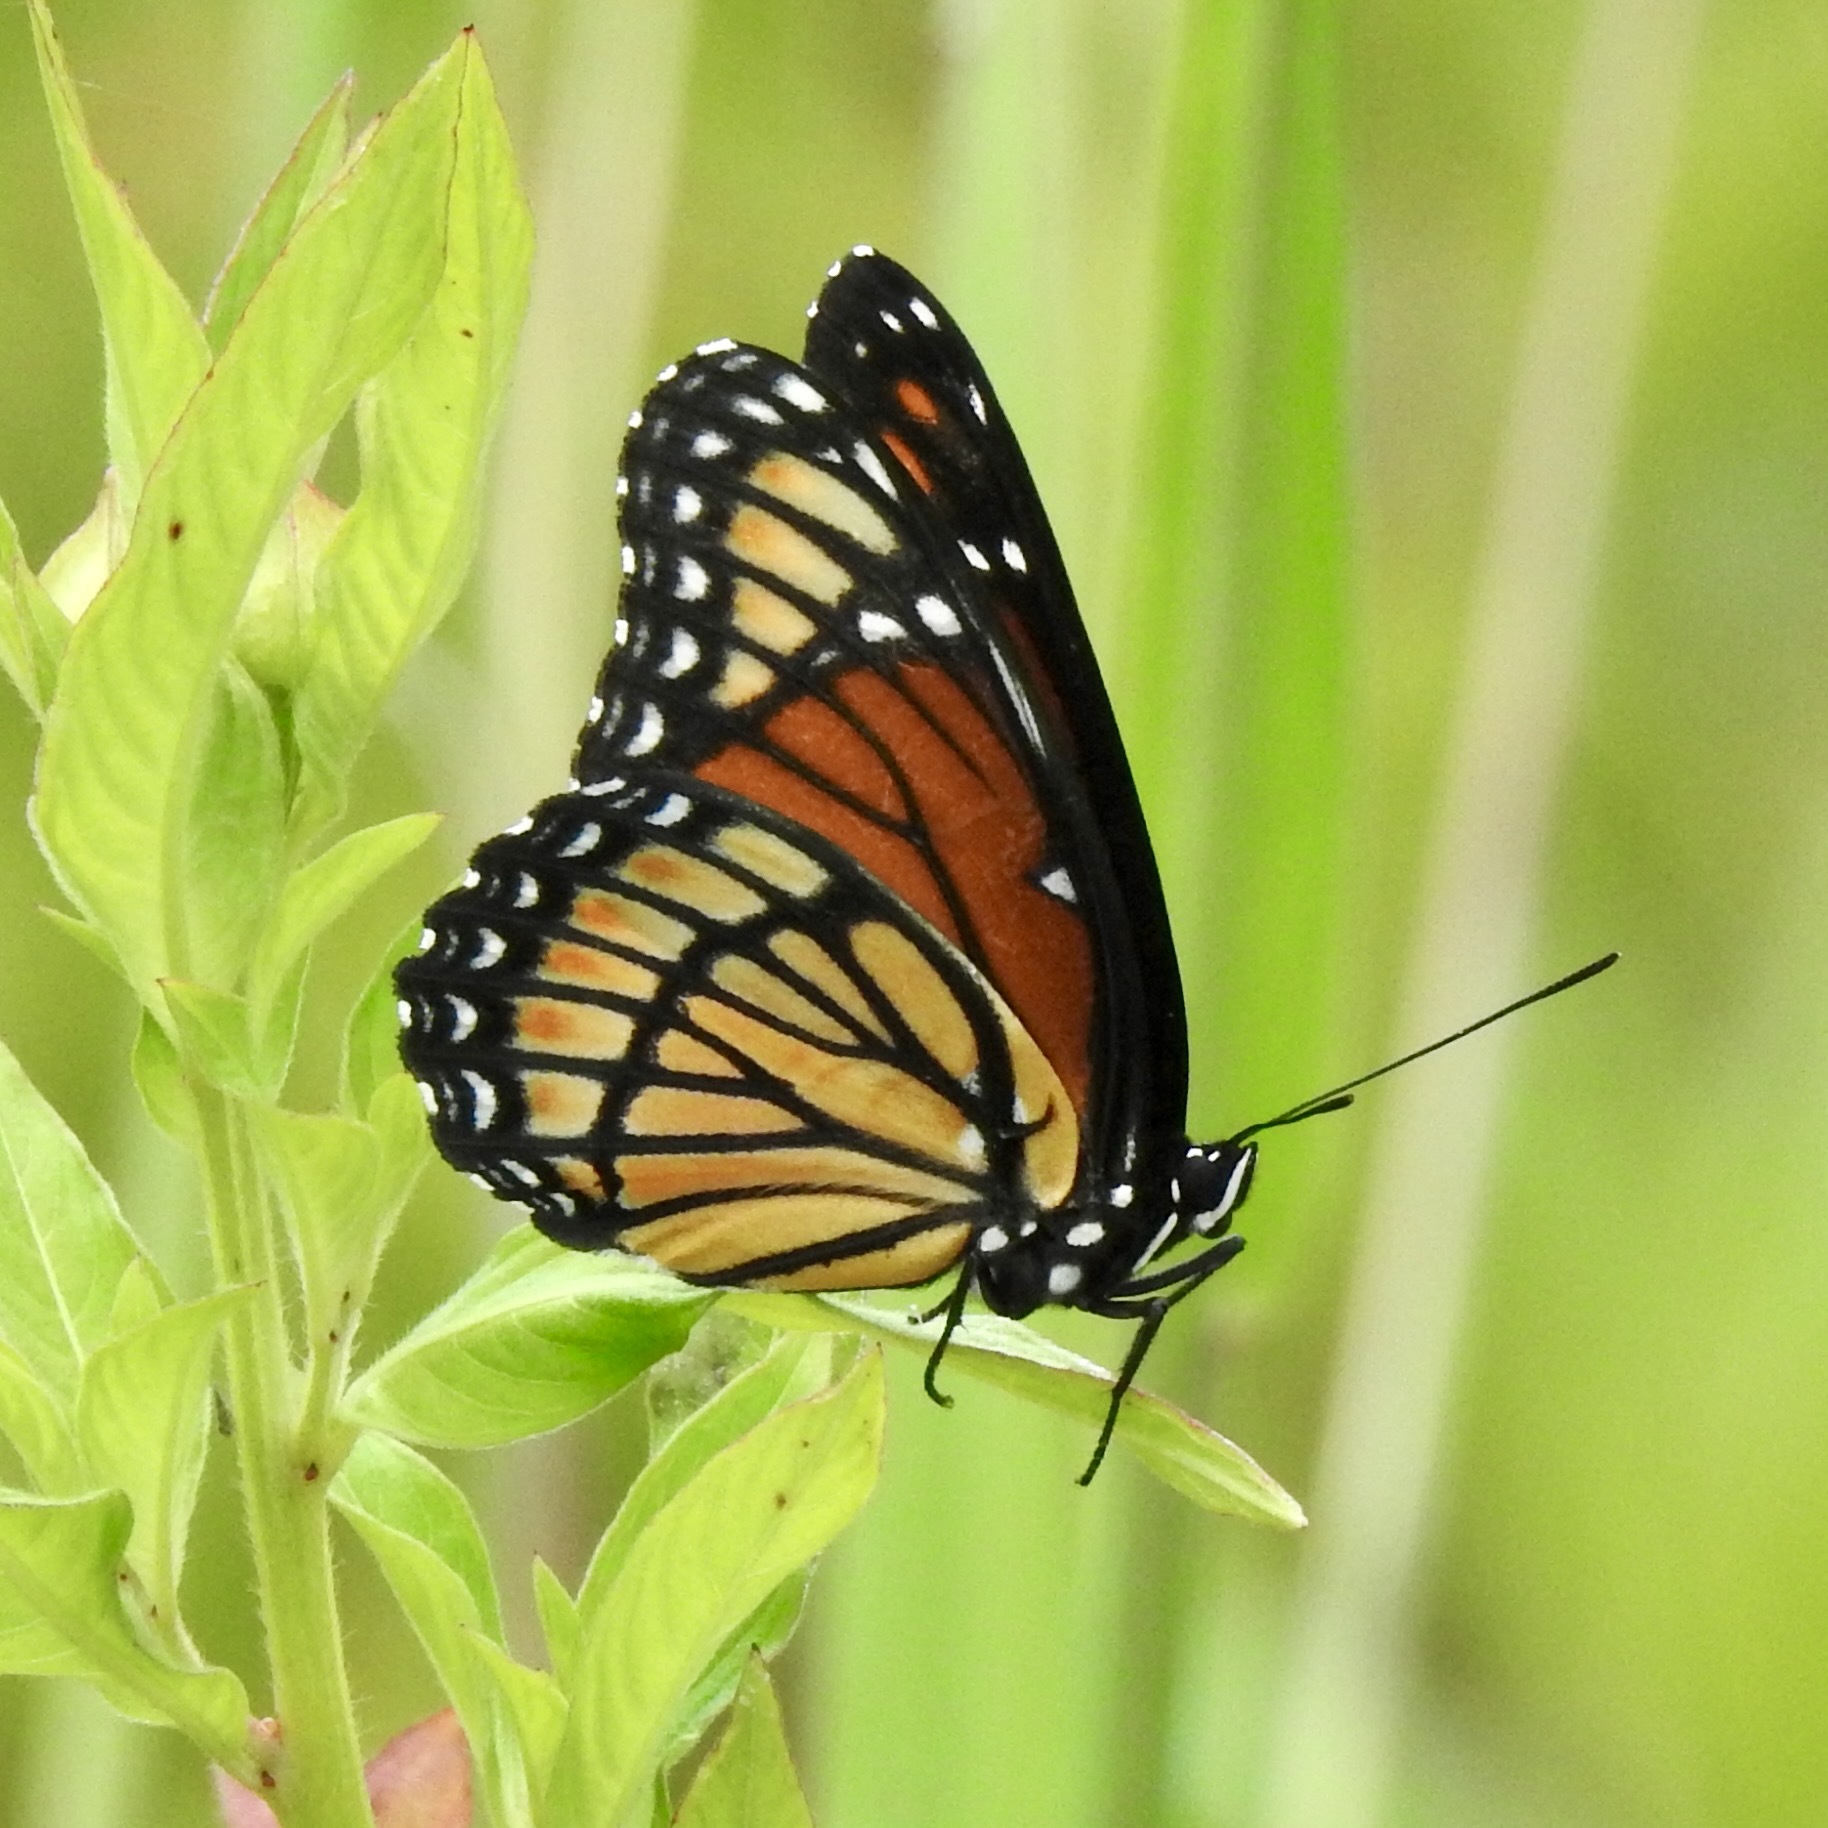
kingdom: Animalia
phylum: Arthropoda
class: Insecta
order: Lepidoptera
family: Nymphalidae
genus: Limenitis
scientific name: Limenitis archippus
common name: Viceroy
